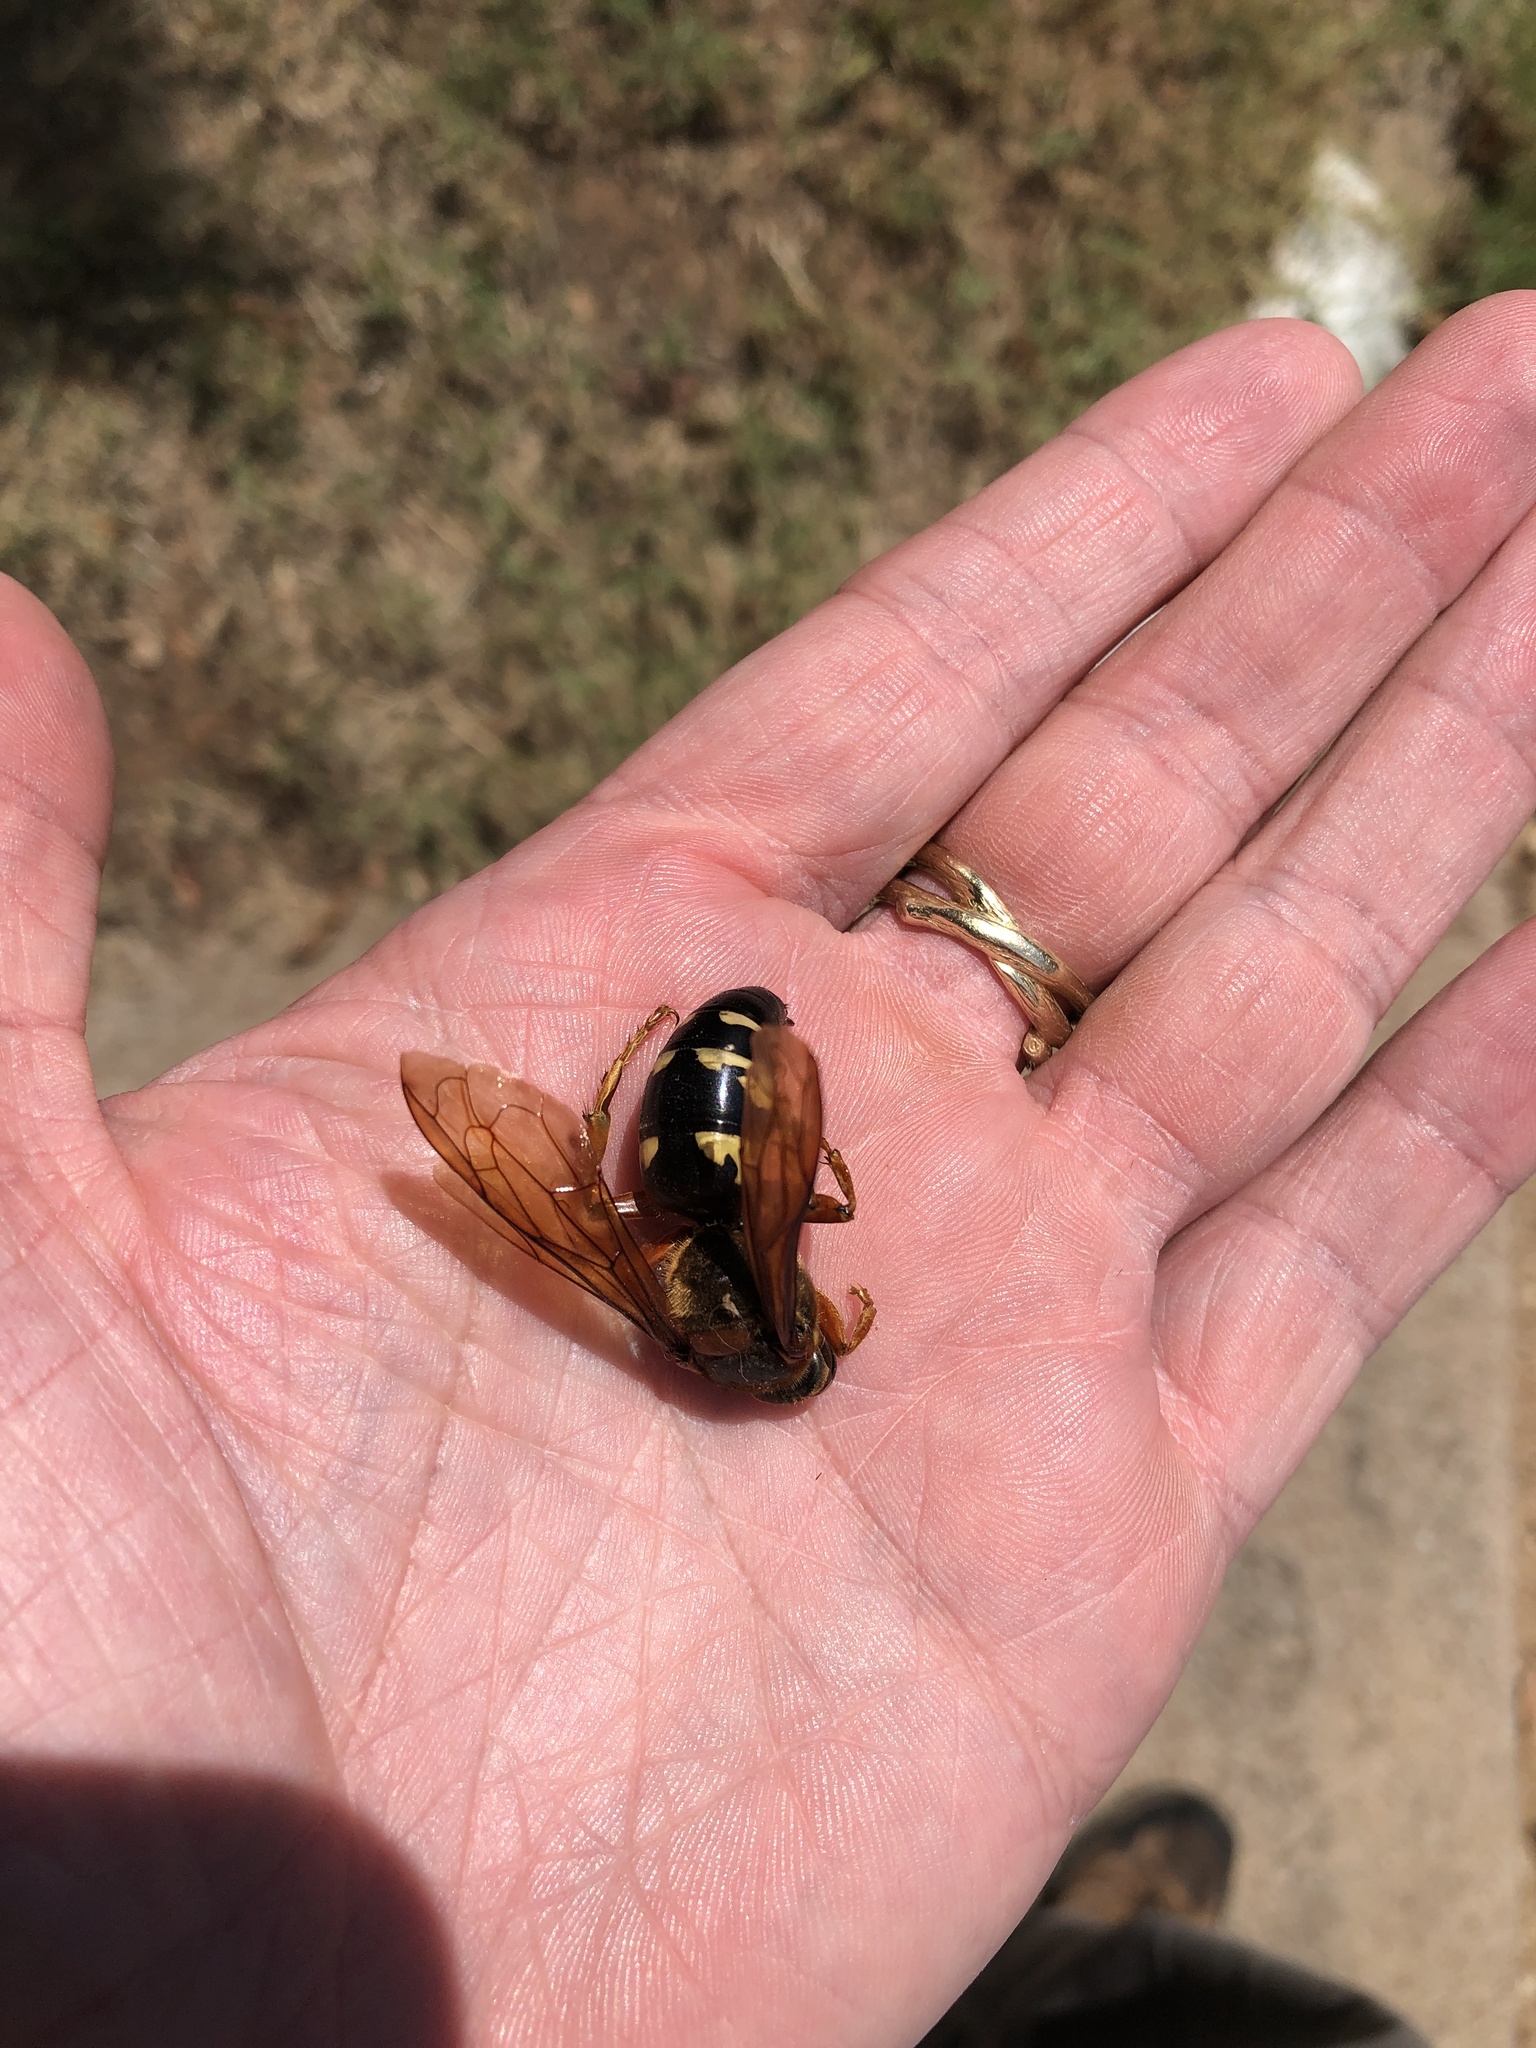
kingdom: Animalia
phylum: Arthropoda
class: Insecta
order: Hymenoptera
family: Crabronidae
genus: Sphecius
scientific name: Sphecius speciosus
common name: Cicada killer
